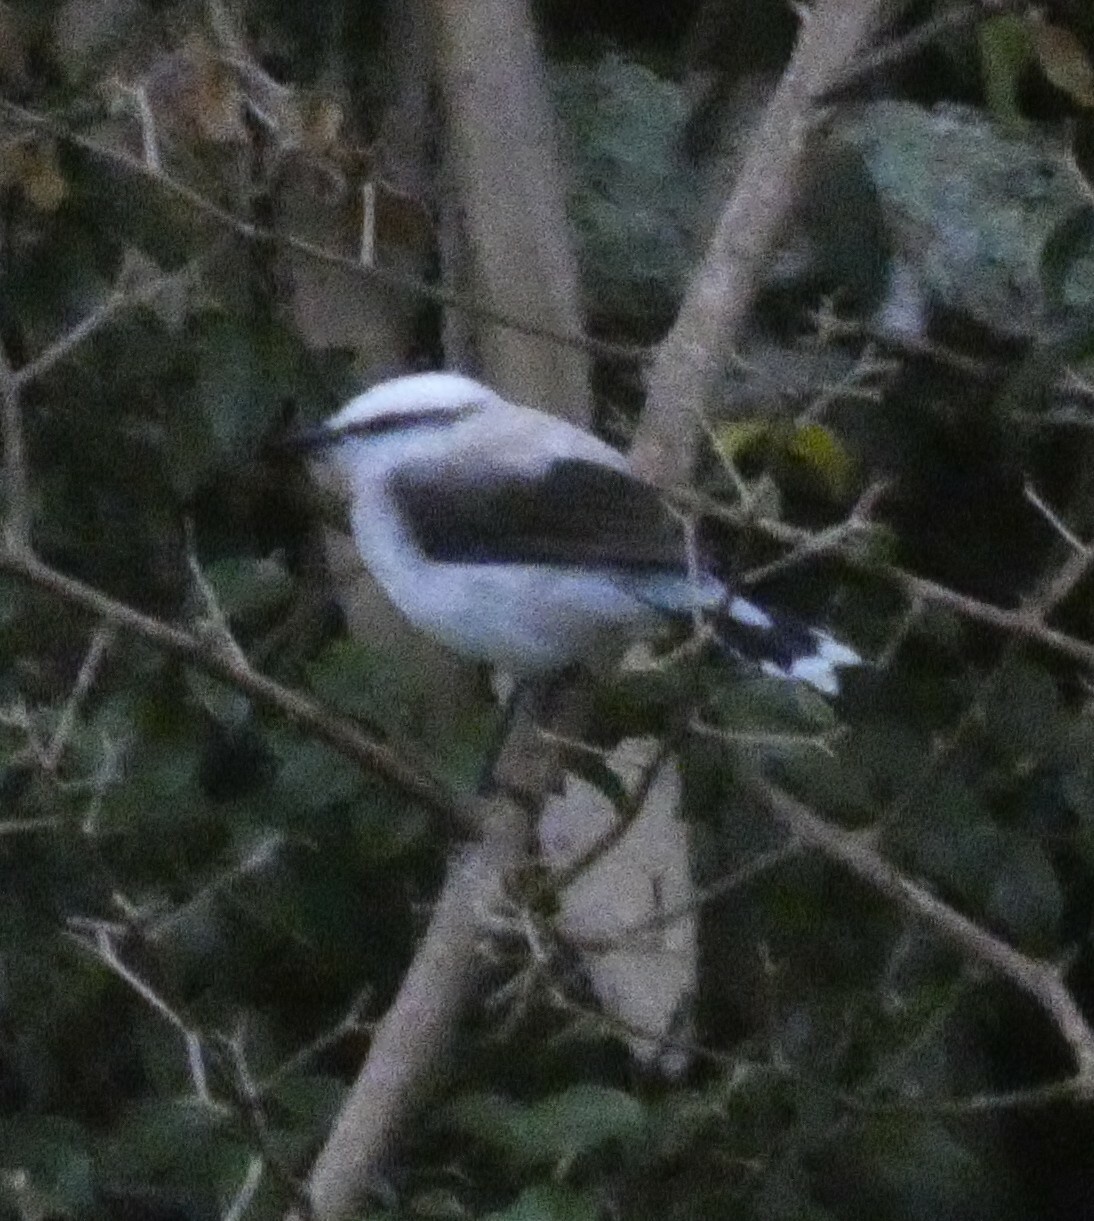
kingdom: Animalia
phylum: Chordata
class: Aves
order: Passeriformes
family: Tyrannidae
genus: Fluvicola
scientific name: Fluvicola nengeta
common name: Masked water tyrant
